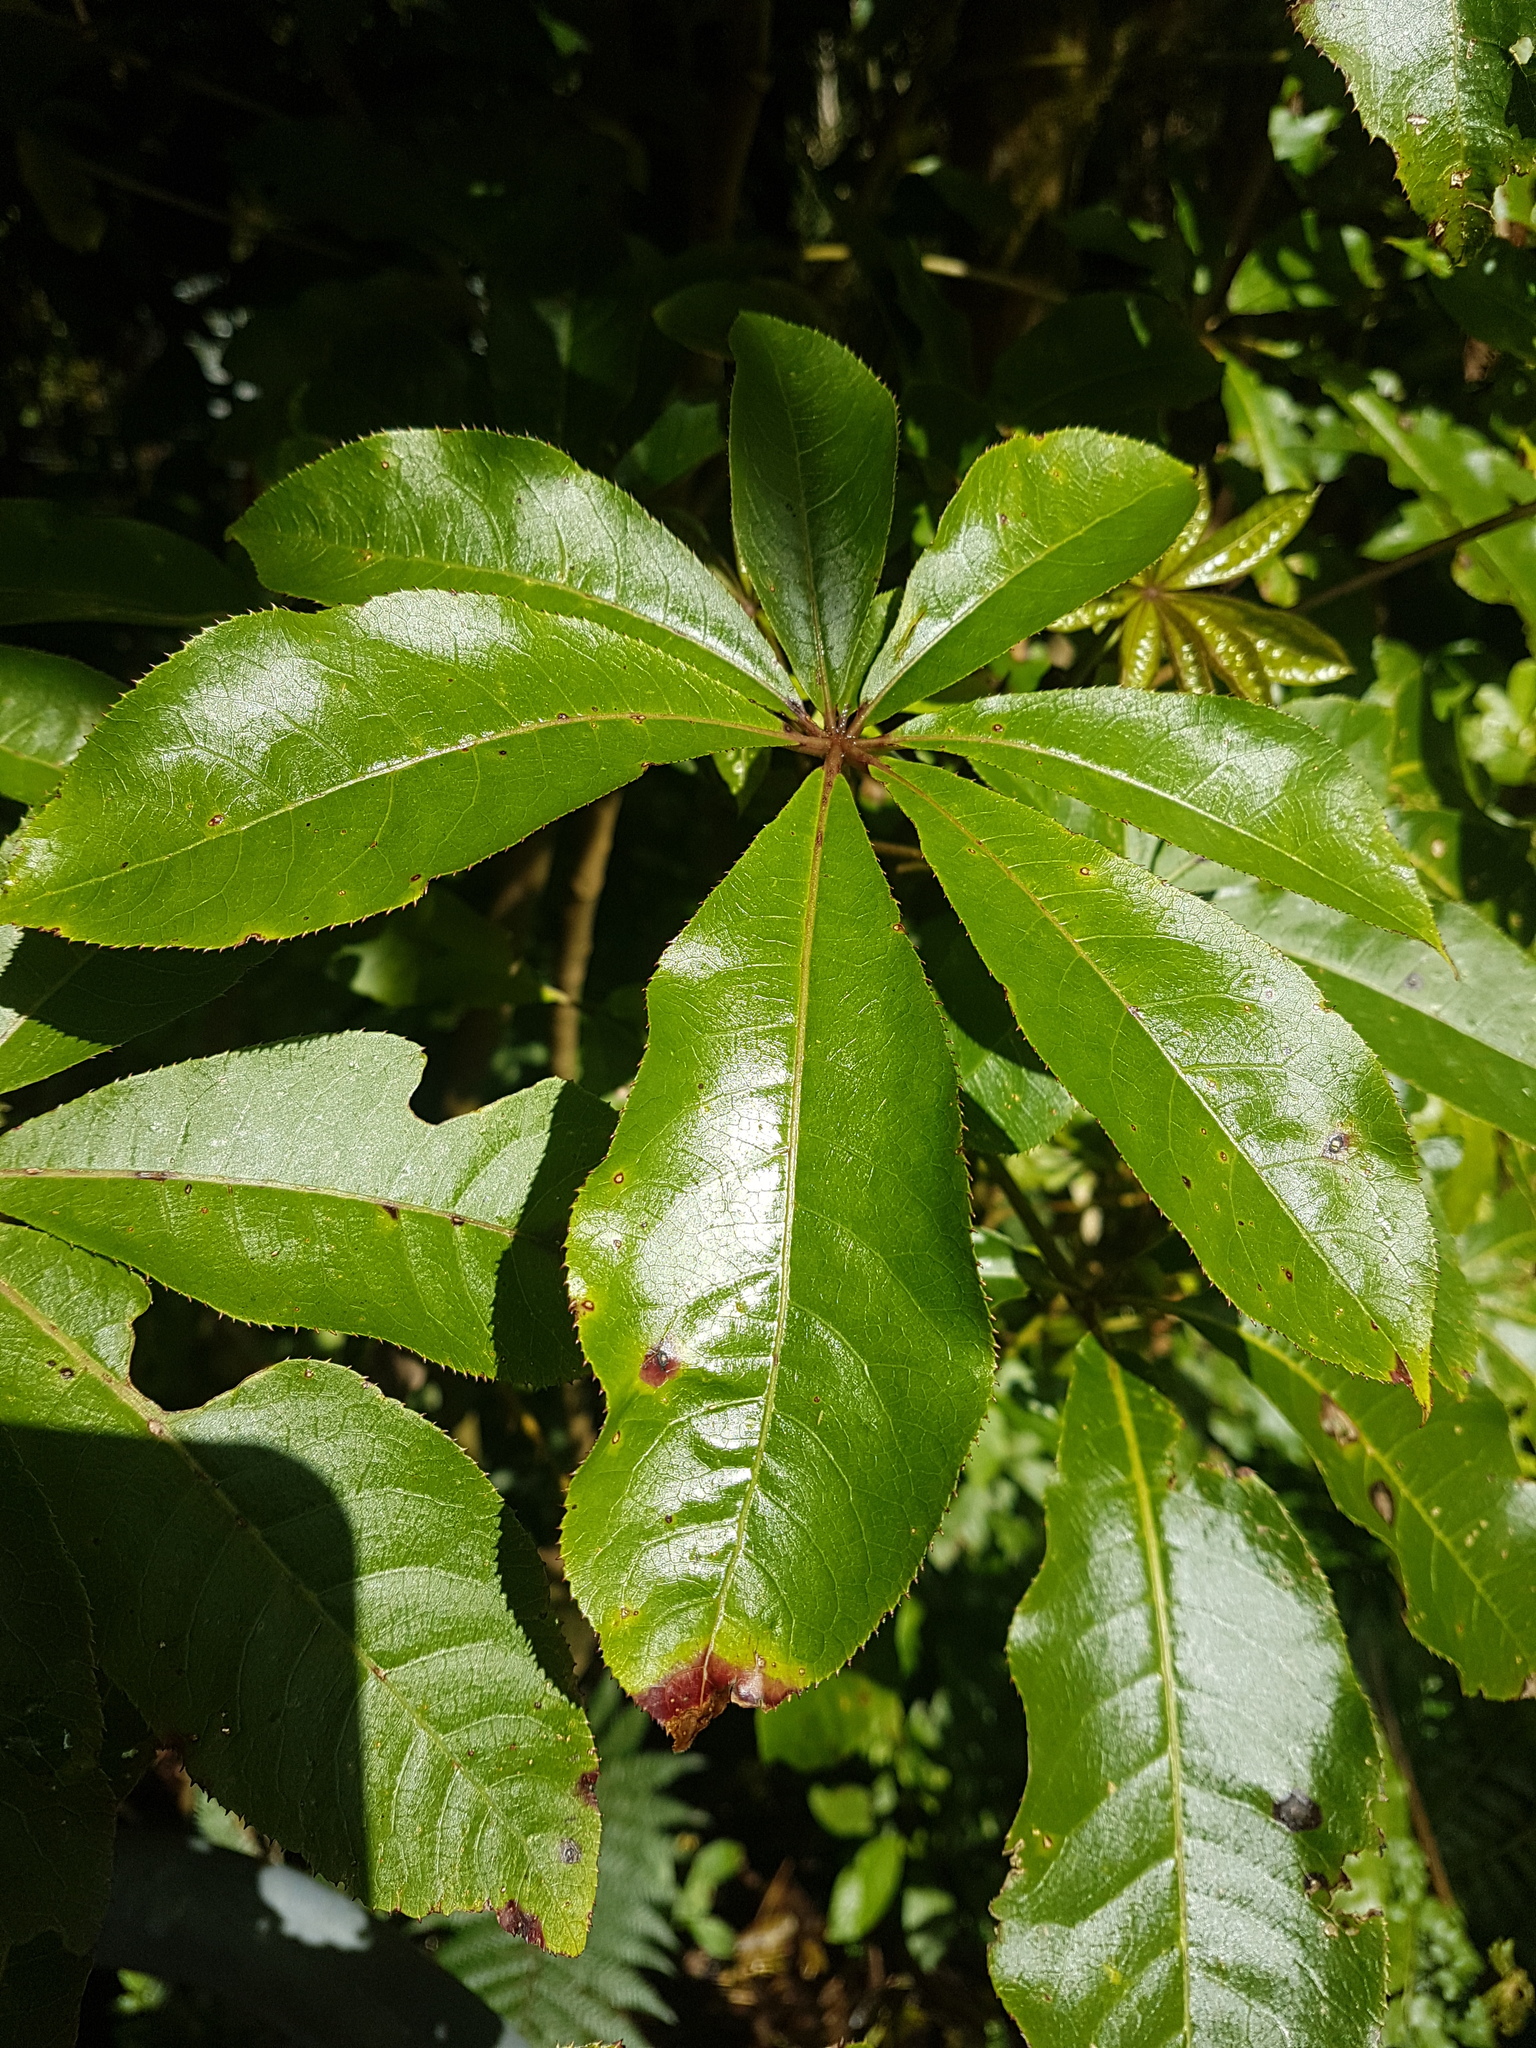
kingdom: Plantae
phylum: Tracheophyta
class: Magnoliopsida
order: Apiales
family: Araliaceae
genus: Schefflera
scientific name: Schefflera digitata
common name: Pate
